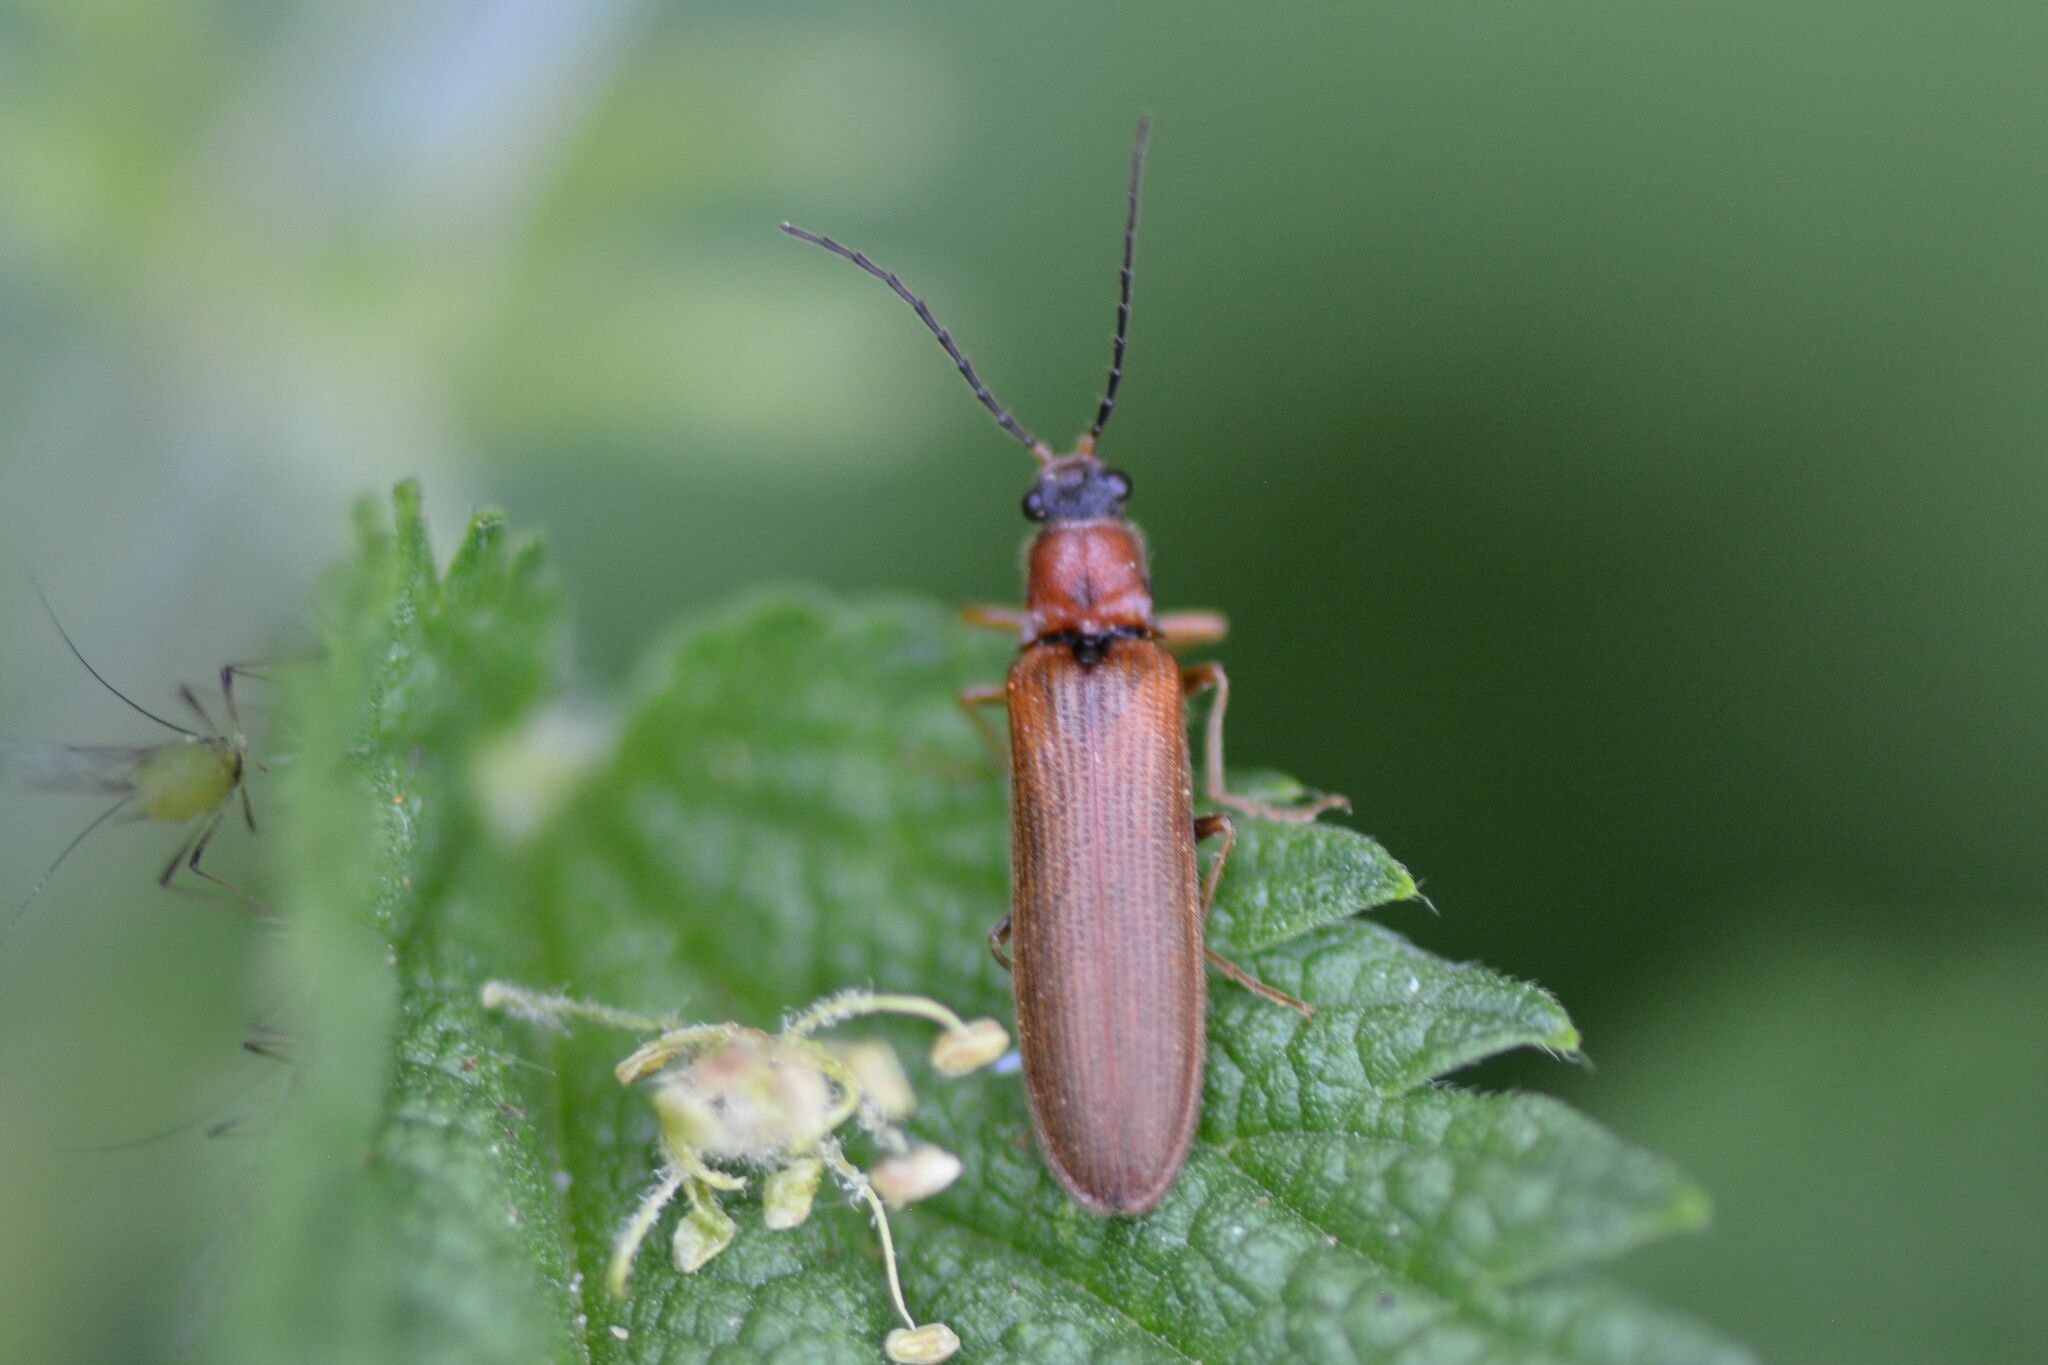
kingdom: Animalia
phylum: Arthropoda
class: Insecta
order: Coleoptera
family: Elateridae
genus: Denticollis
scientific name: Denticollis linearis
